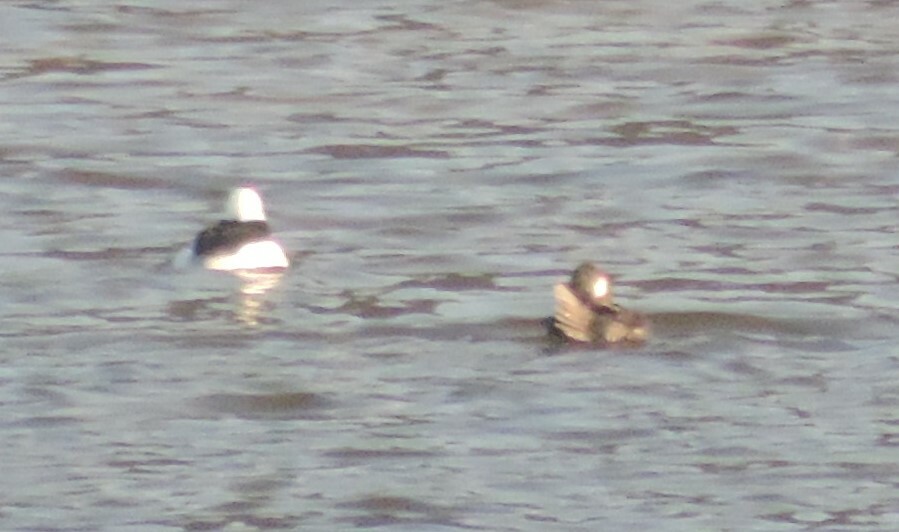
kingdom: Animalia
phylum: Chordata
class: Aves
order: Anseriformes
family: Anatidae
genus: Bucephala
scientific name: Bucephala albeola
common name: Bufflehead
